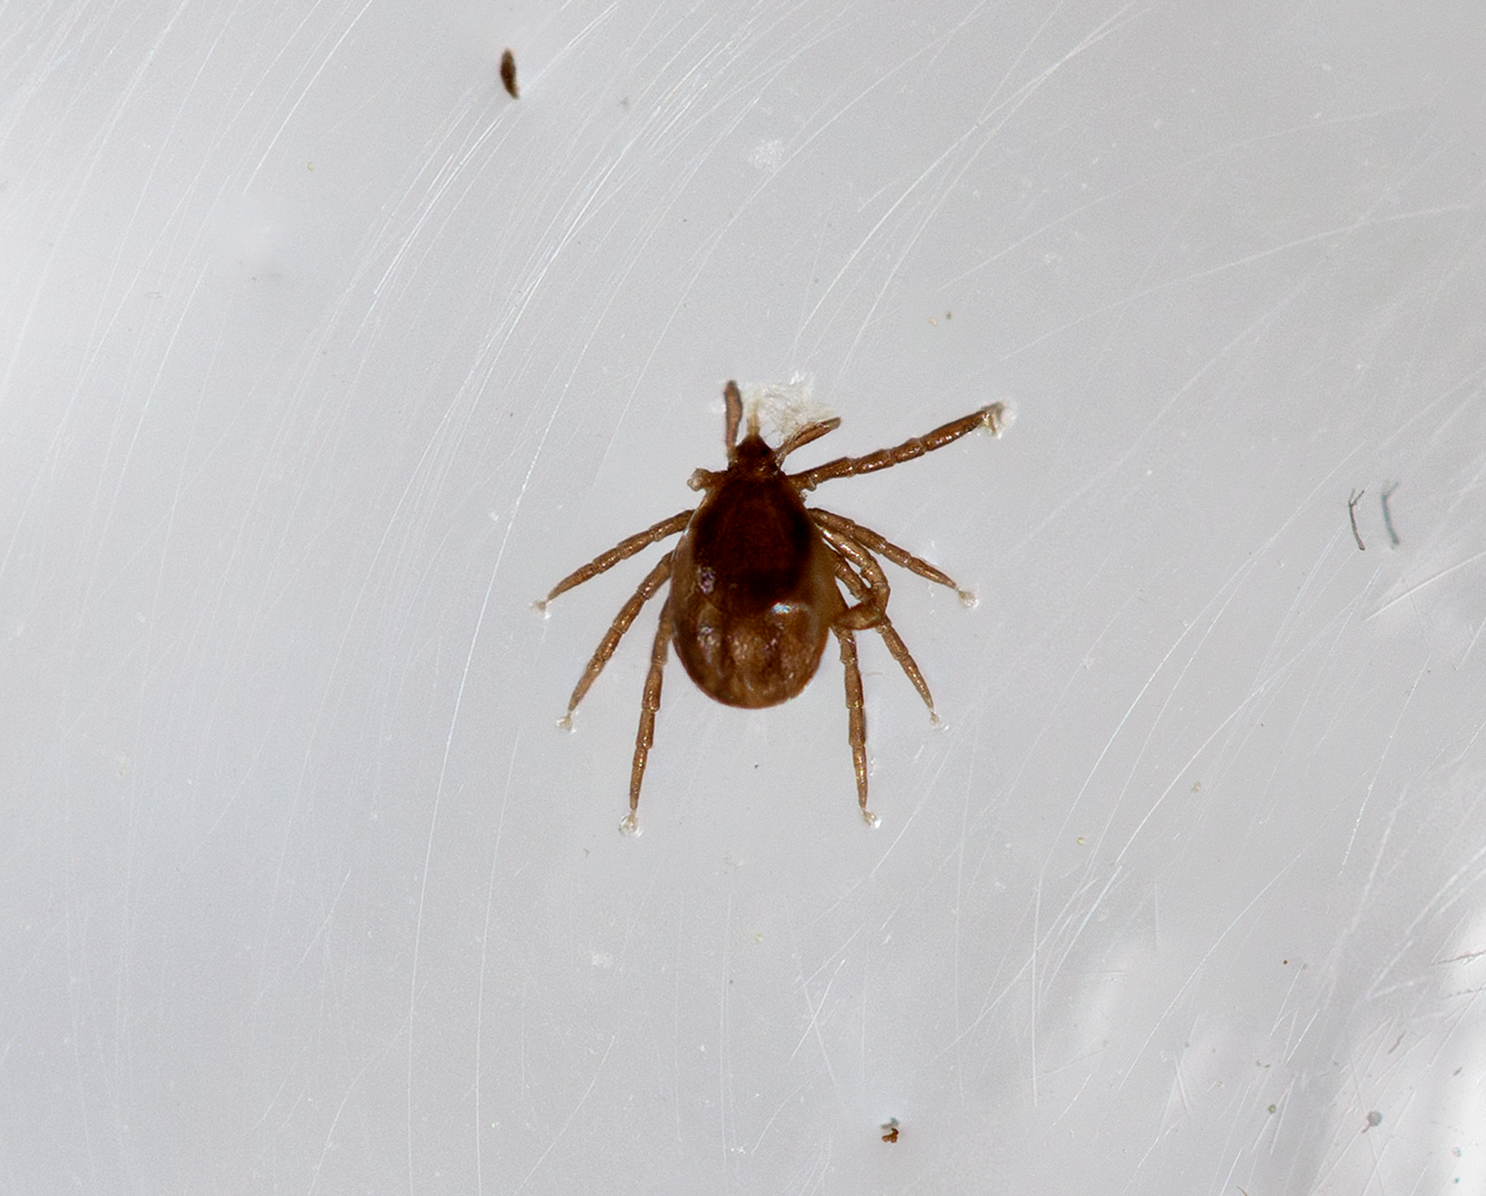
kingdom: Animalia
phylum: Arthropoda
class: Arachnida
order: Ixodida
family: Ixodidae
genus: Ixodes
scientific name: Ixodes scapularis
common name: Black legged tick
